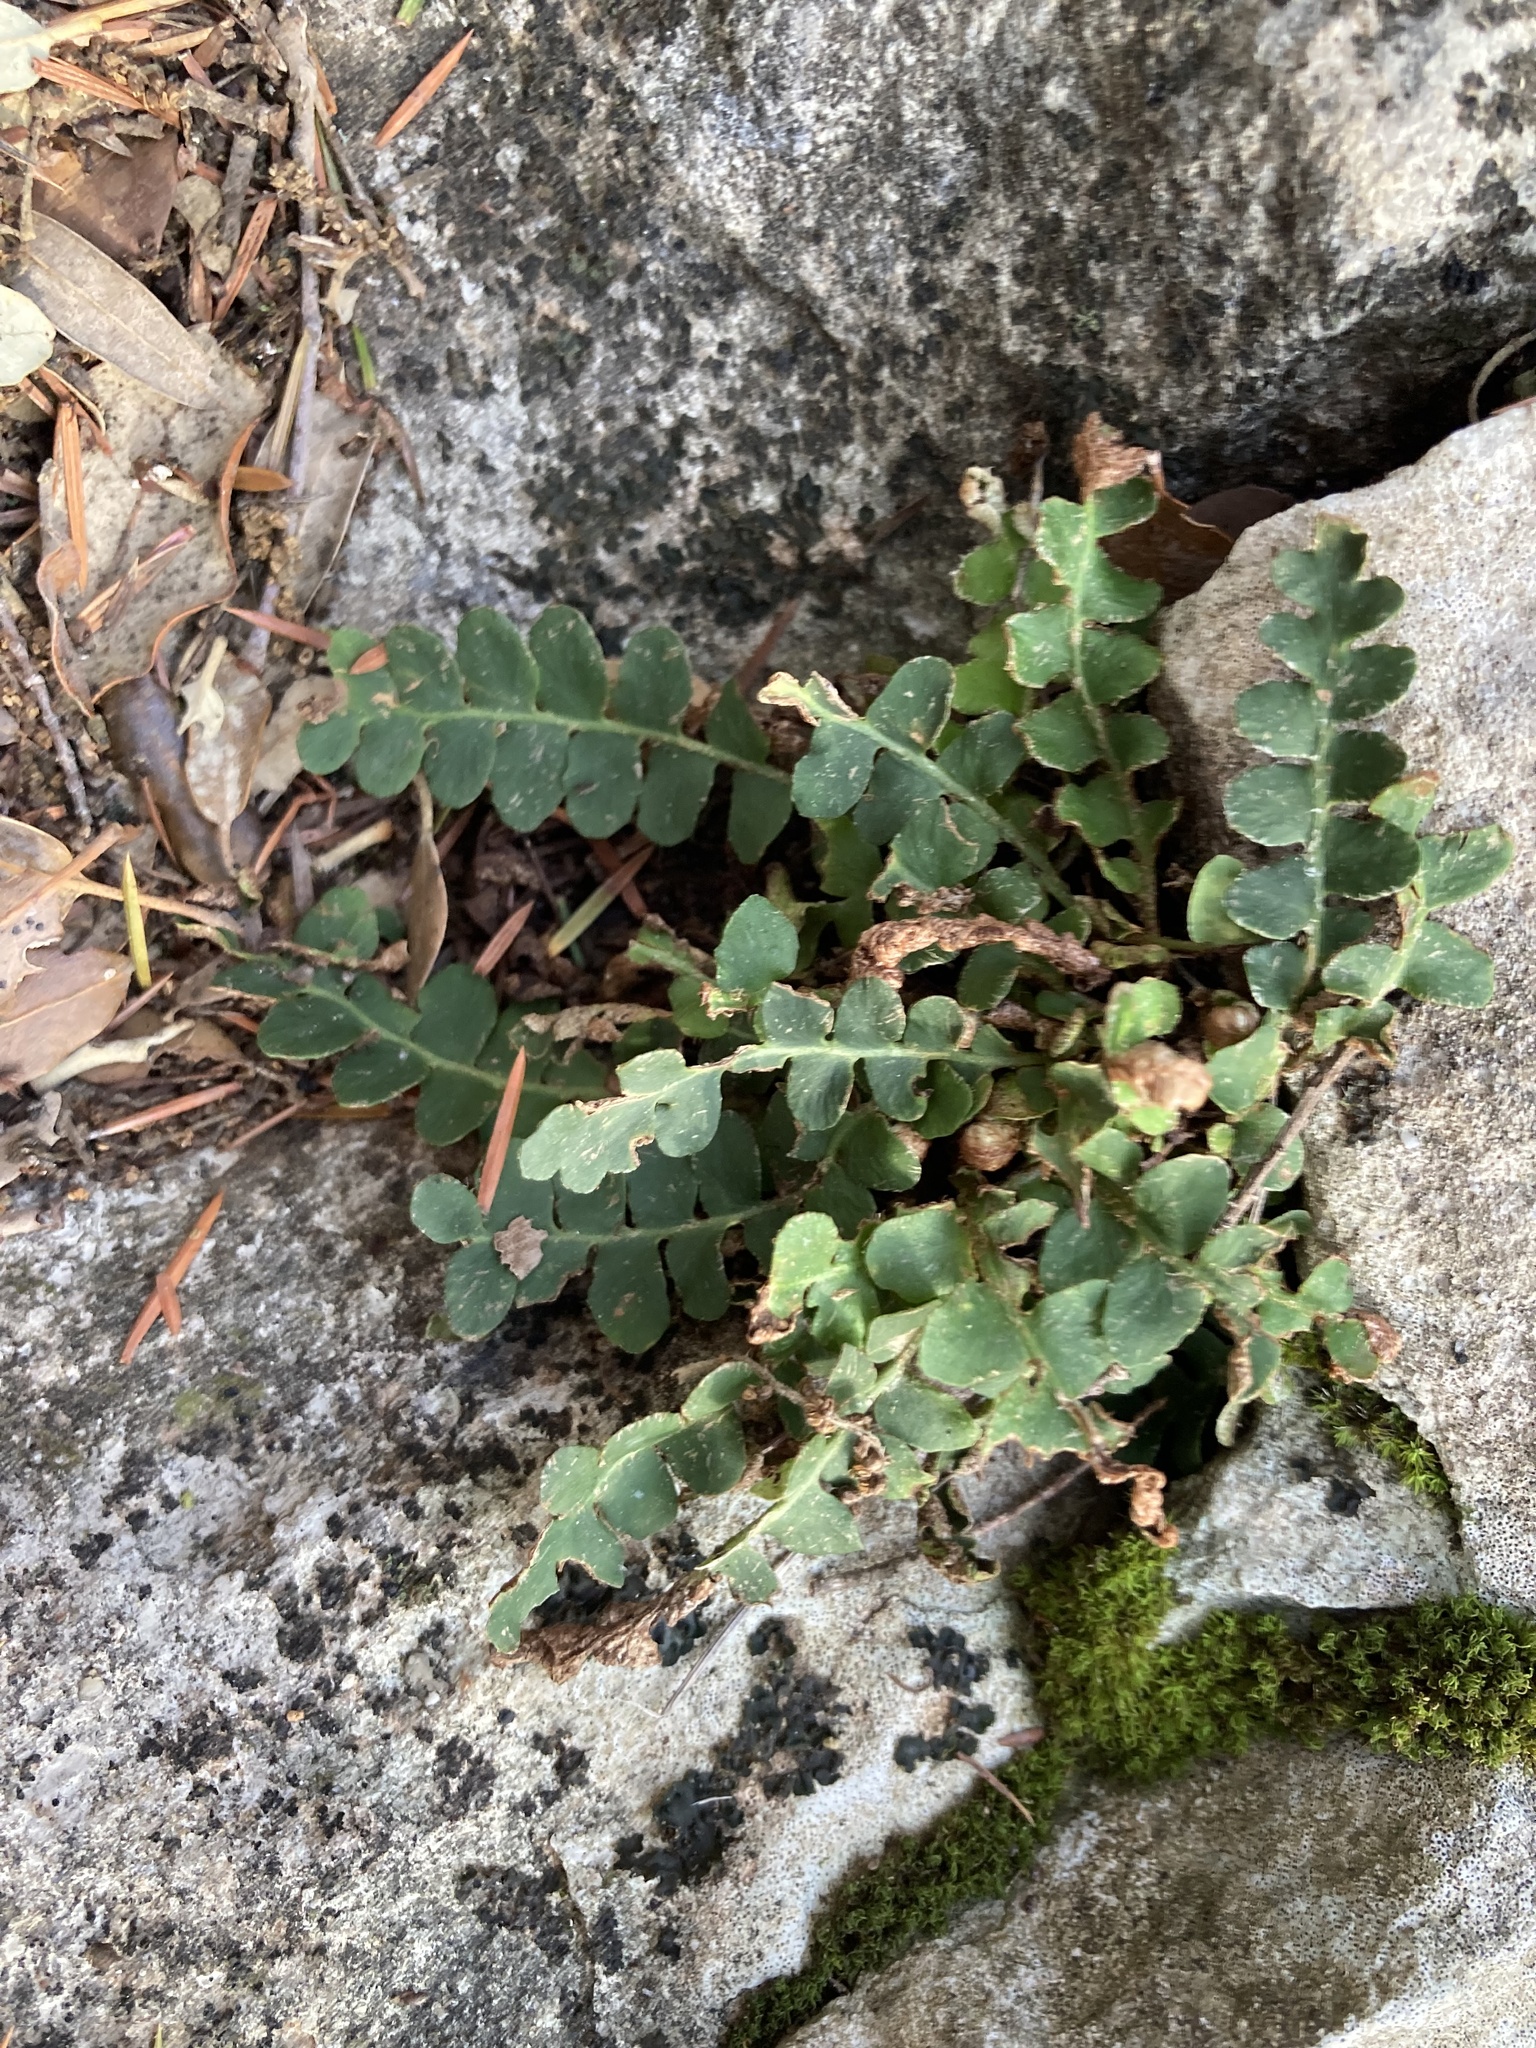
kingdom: Plantae
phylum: Tracheophyta
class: Polypodiopsida
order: Polypodiales
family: Aspleniaceae
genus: Asplenium
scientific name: Asplenium ceterach
